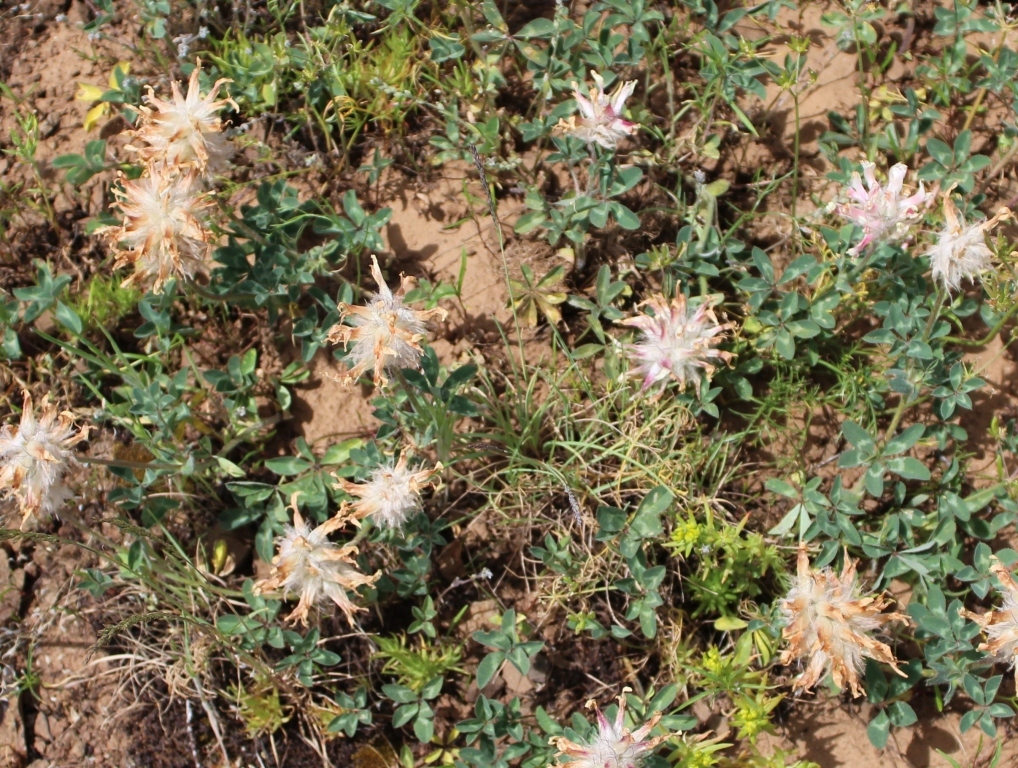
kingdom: Plantae
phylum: Tracheophyta
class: Magnoliopsida
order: Fabales
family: Fabaceae
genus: Trifolium
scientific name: Trifolium macrocephalum
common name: Large-head clover
